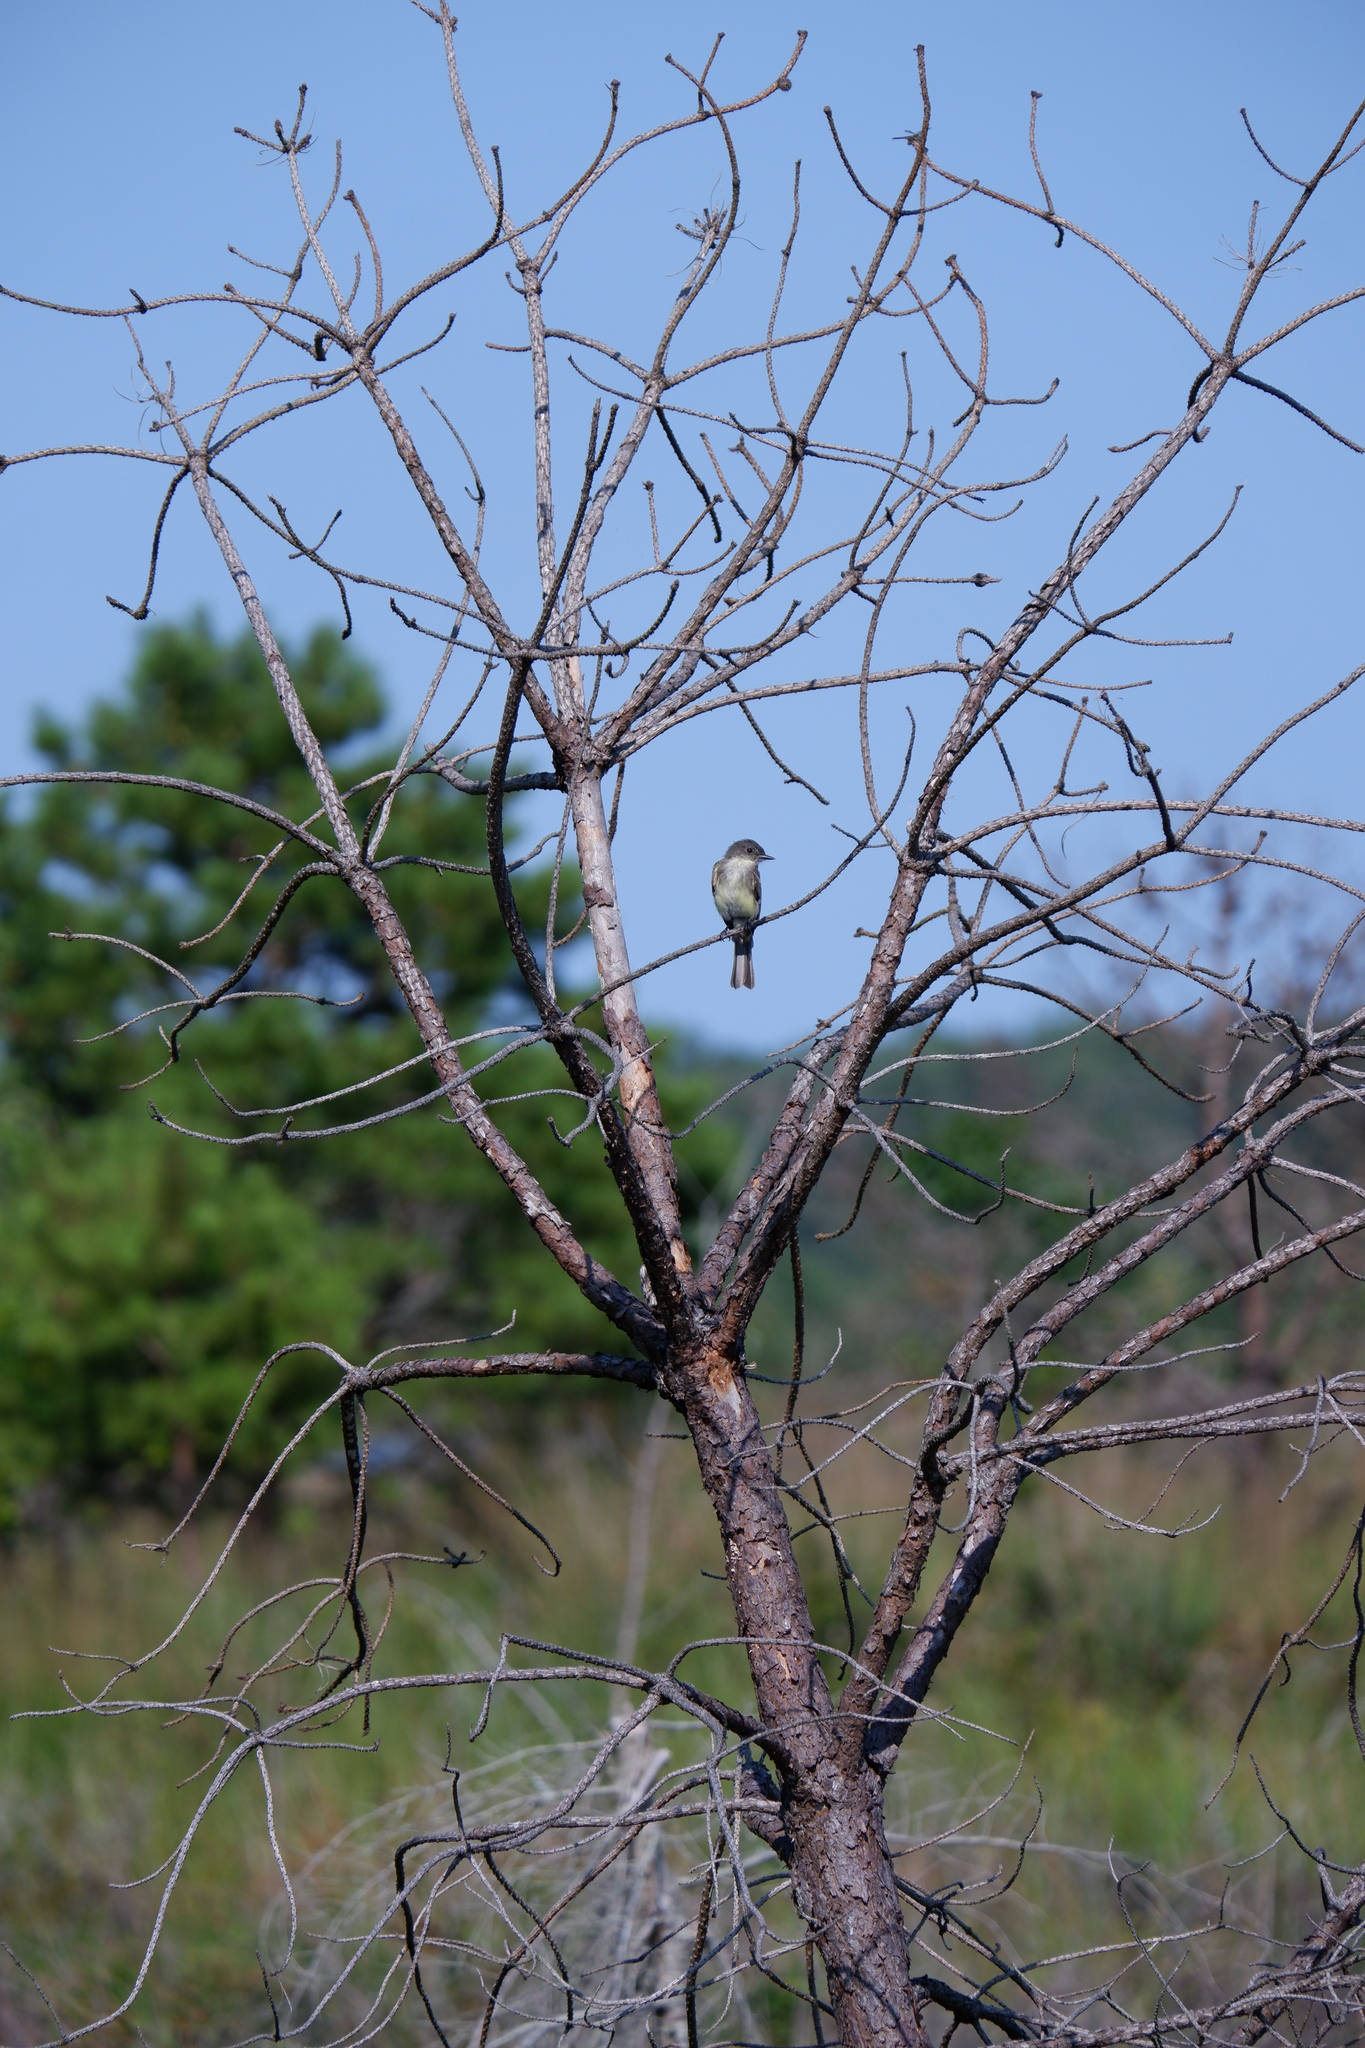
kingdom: Animalia
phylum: Chordata
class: Aves
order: Passeriformes
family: Tyrannidae
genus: Sayornis
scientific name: Sayornis phoebe
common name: Eastern phoebe
